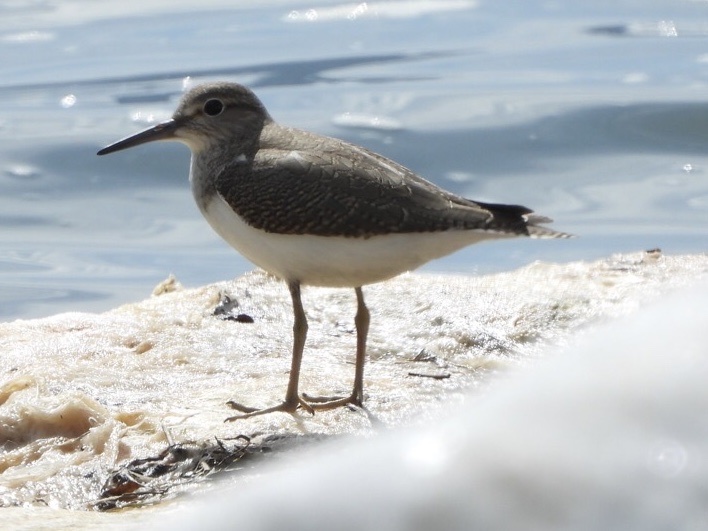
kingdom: Animalia
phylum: Chordata
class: Aves
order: Charadriiformes
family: Scolopacidae
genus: Actitis
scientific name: Actitis hypoleucos
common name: Common sandpiper
